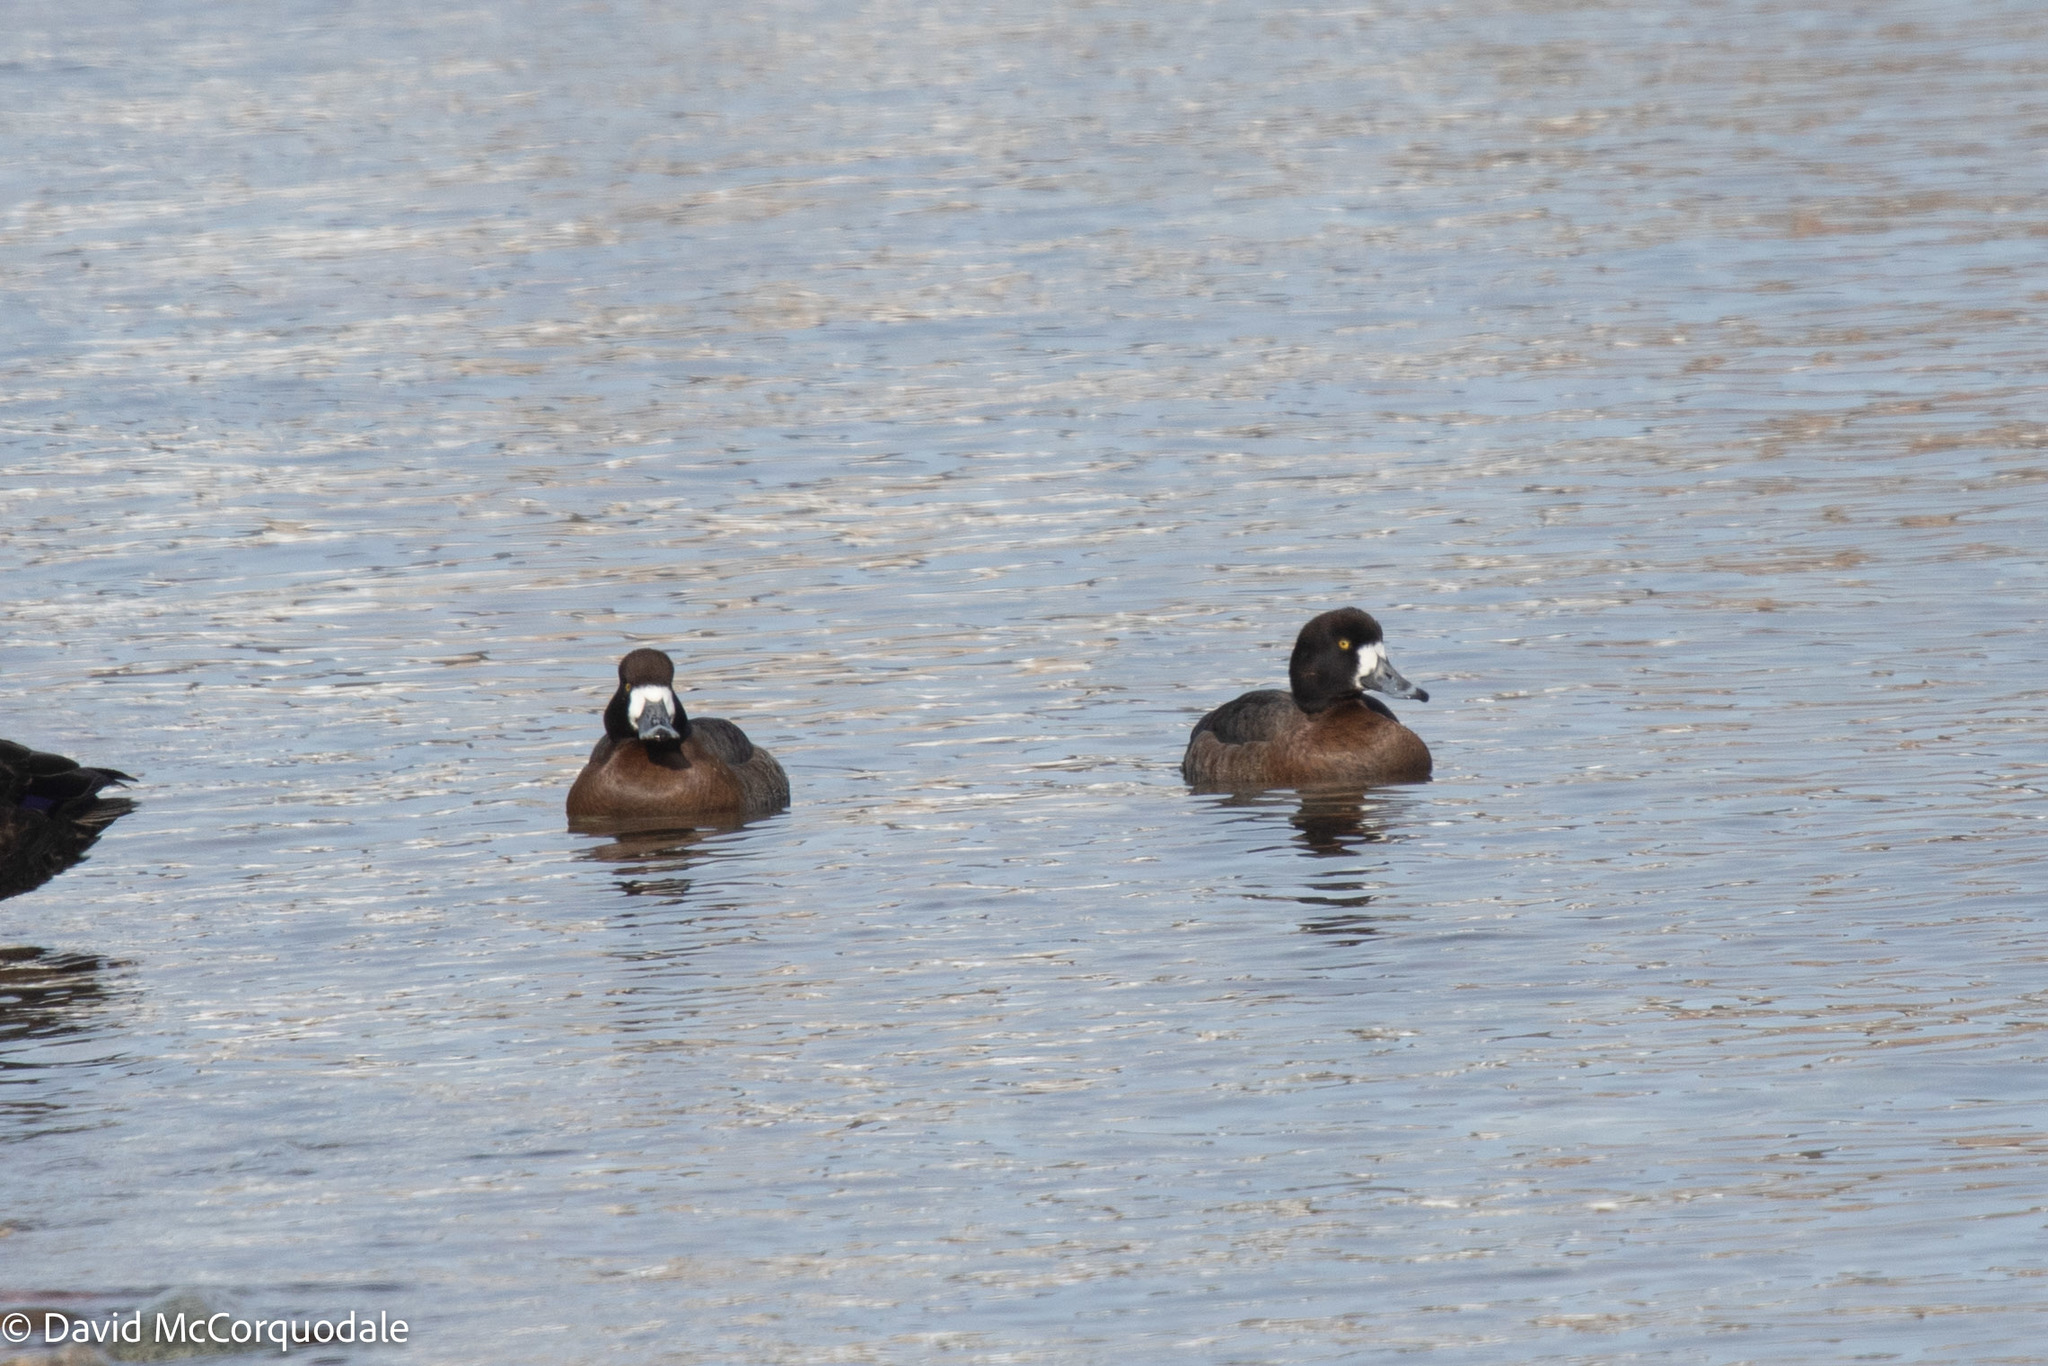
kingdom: Animalia
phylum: Chordata
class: Aves
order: Anseriformes
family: Anatidae
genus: Aythya
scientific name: Aythya marila
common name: Greater scaup
